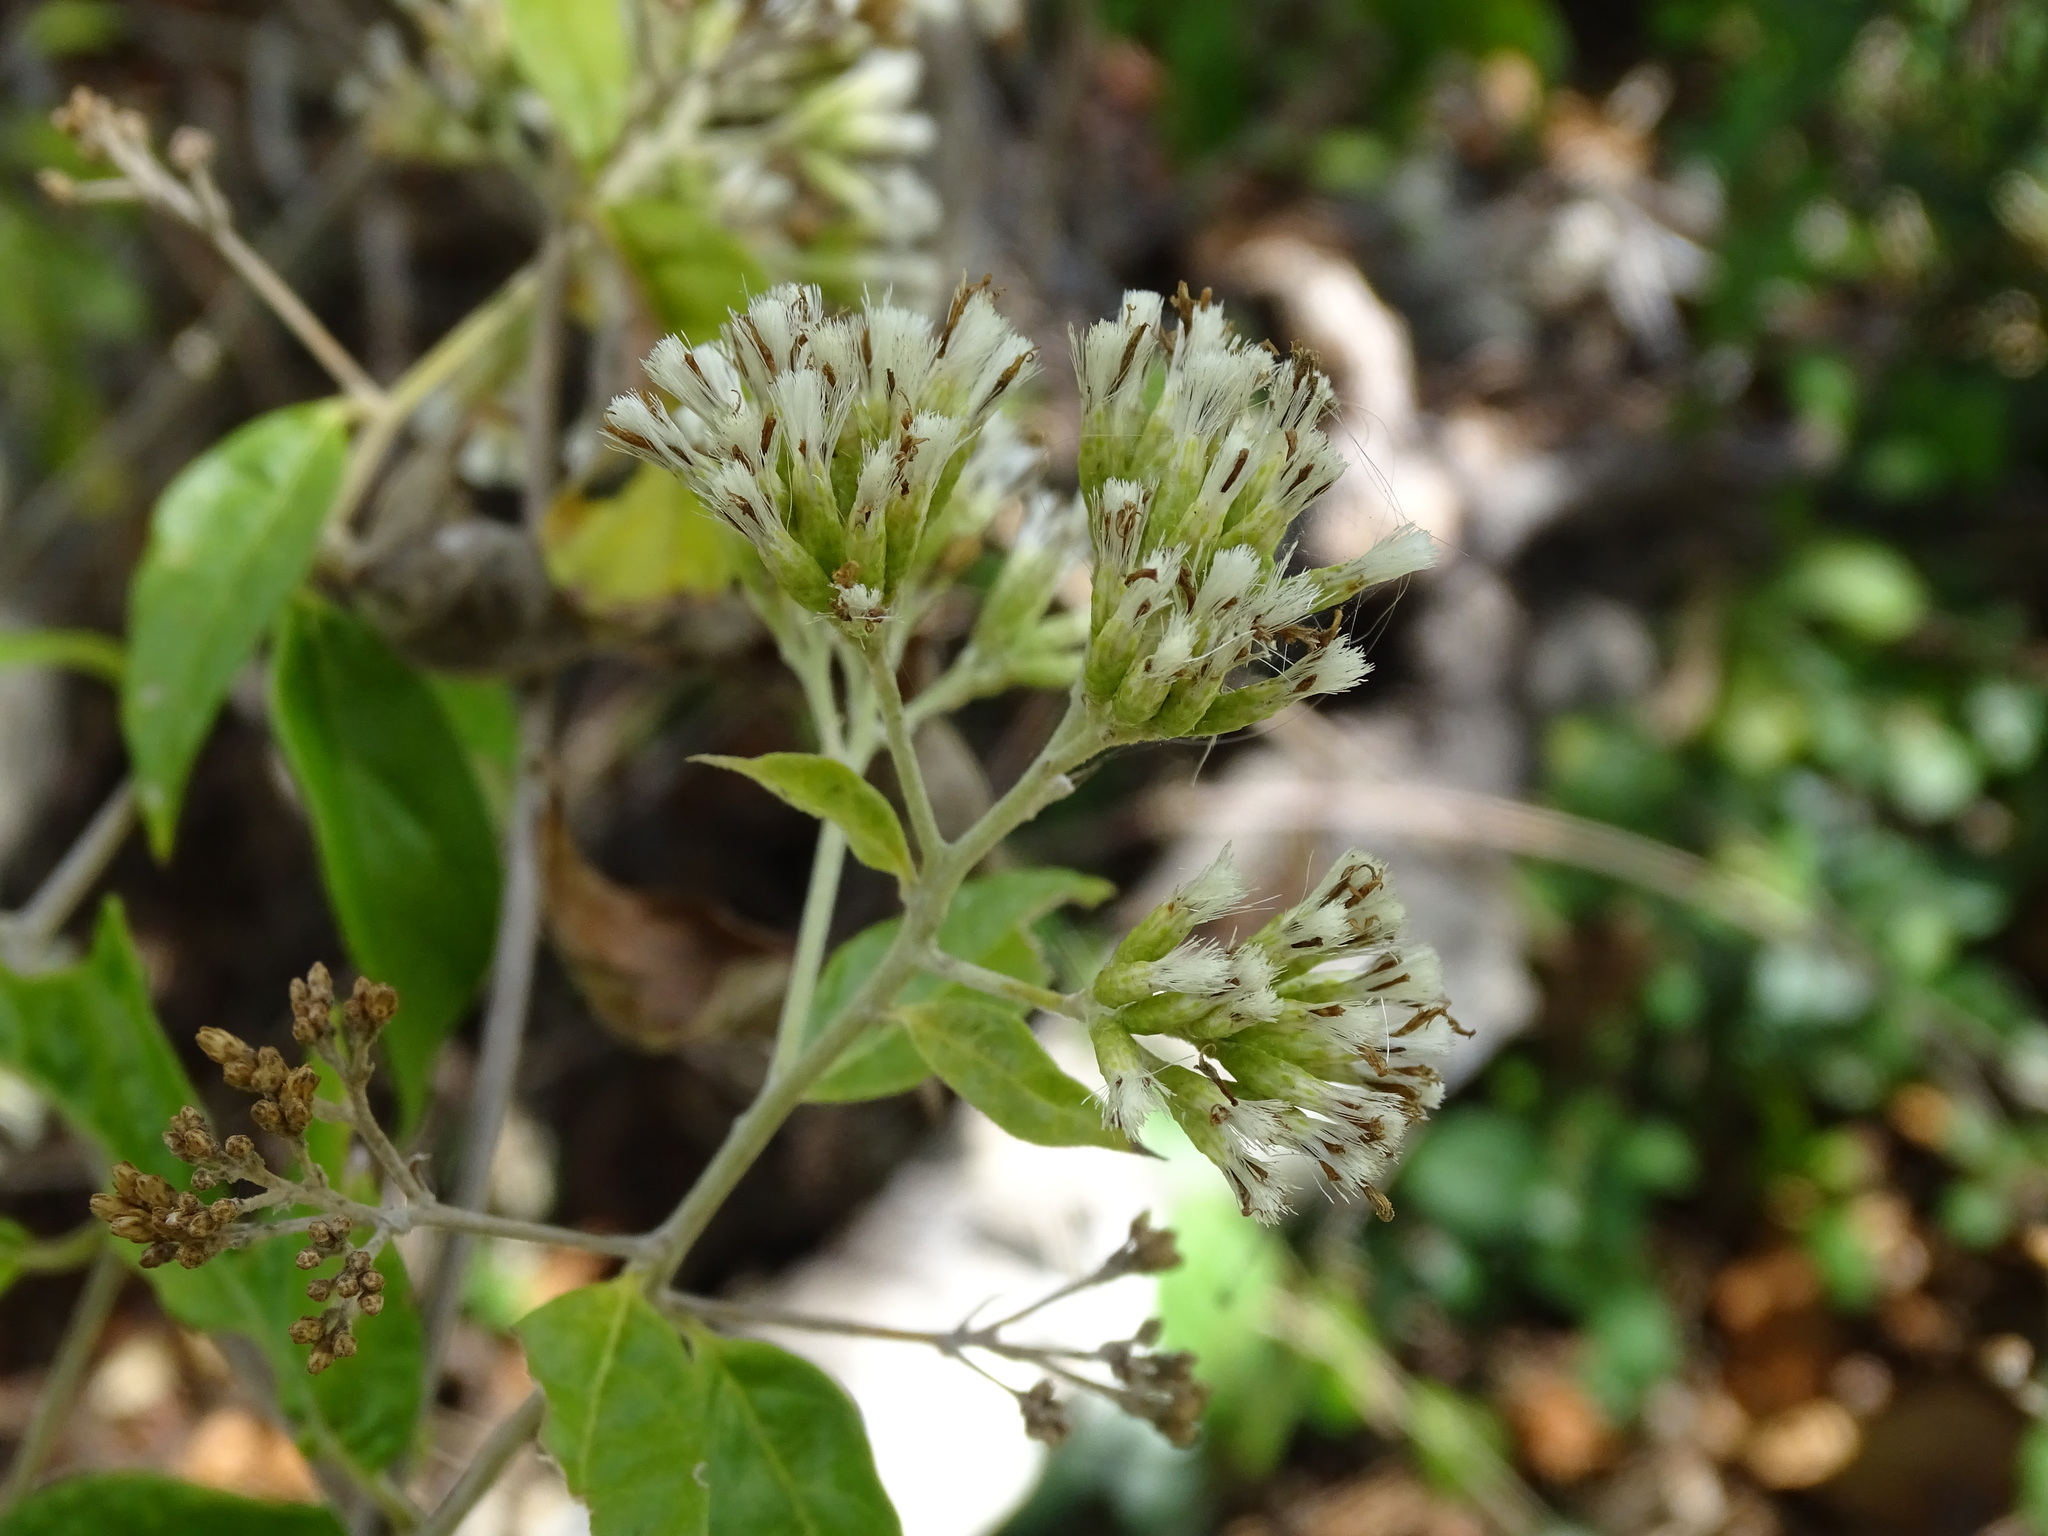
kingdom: Plantae
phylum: Tracheophyta
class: Magnoliopsida
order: Asterales
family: Asteraceae
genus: Eremosis
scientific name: Eremosis oolepis
